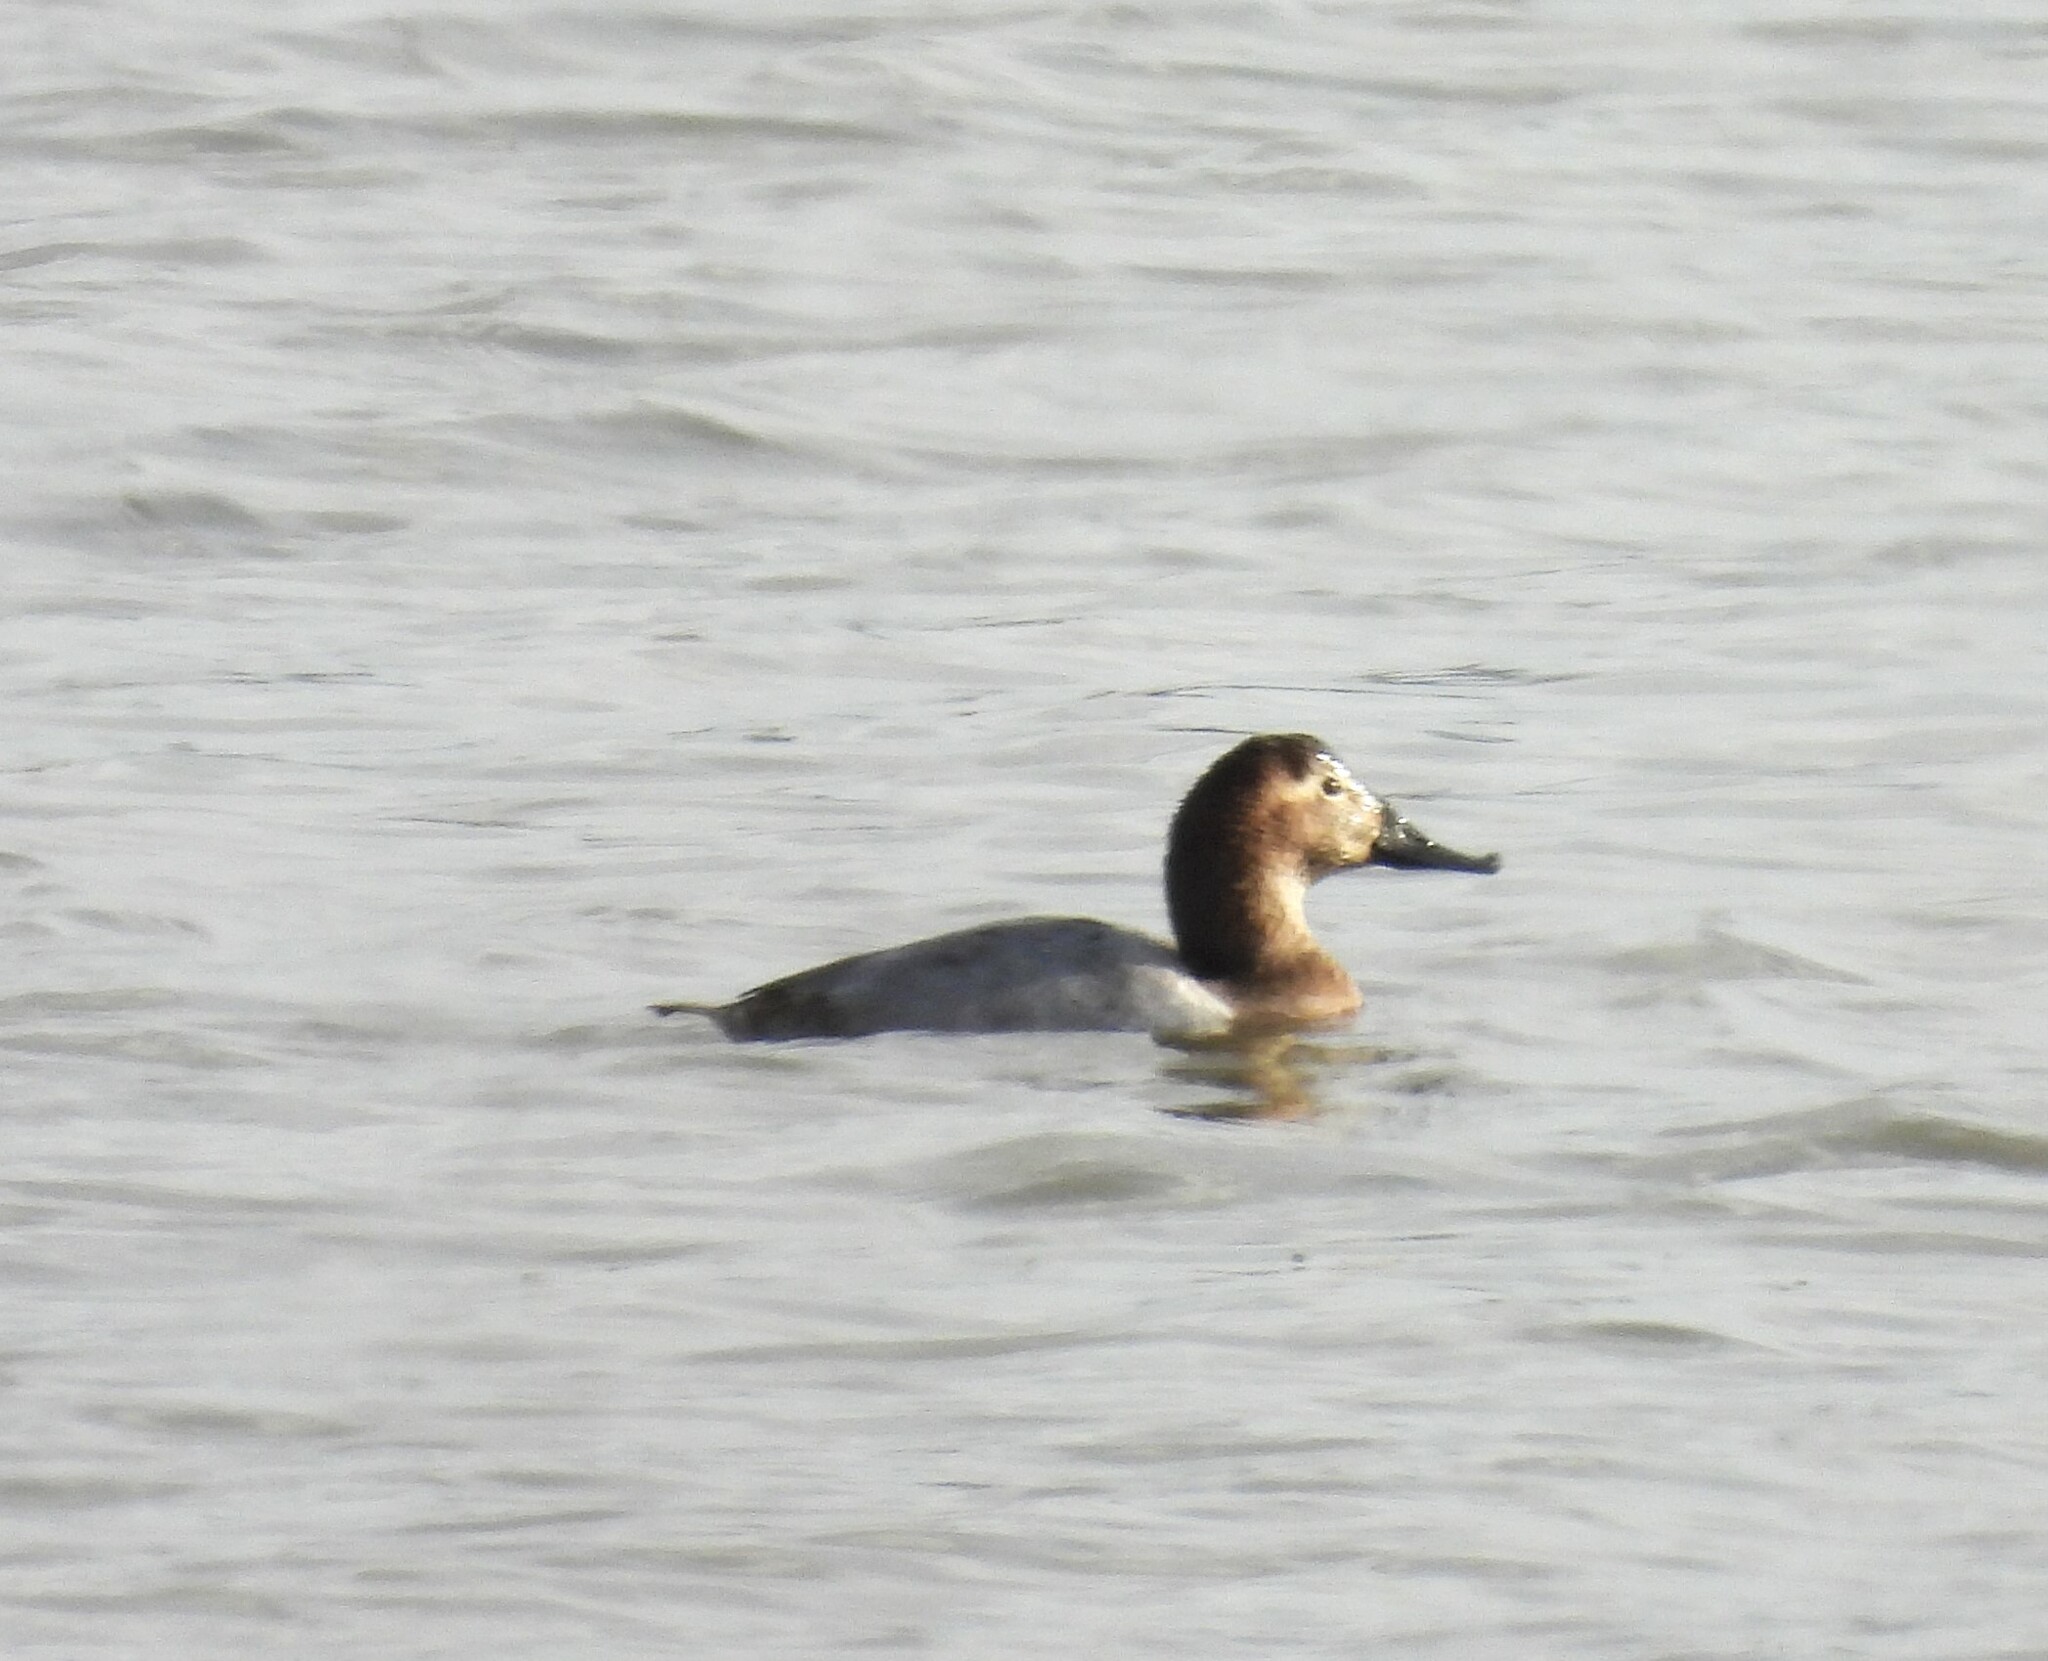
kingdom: Animalia
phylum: Chordata
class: Aves
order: Anseriformes
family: Anatidae
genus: Aythya
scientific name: Aythya valisineria
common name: Canvasback
